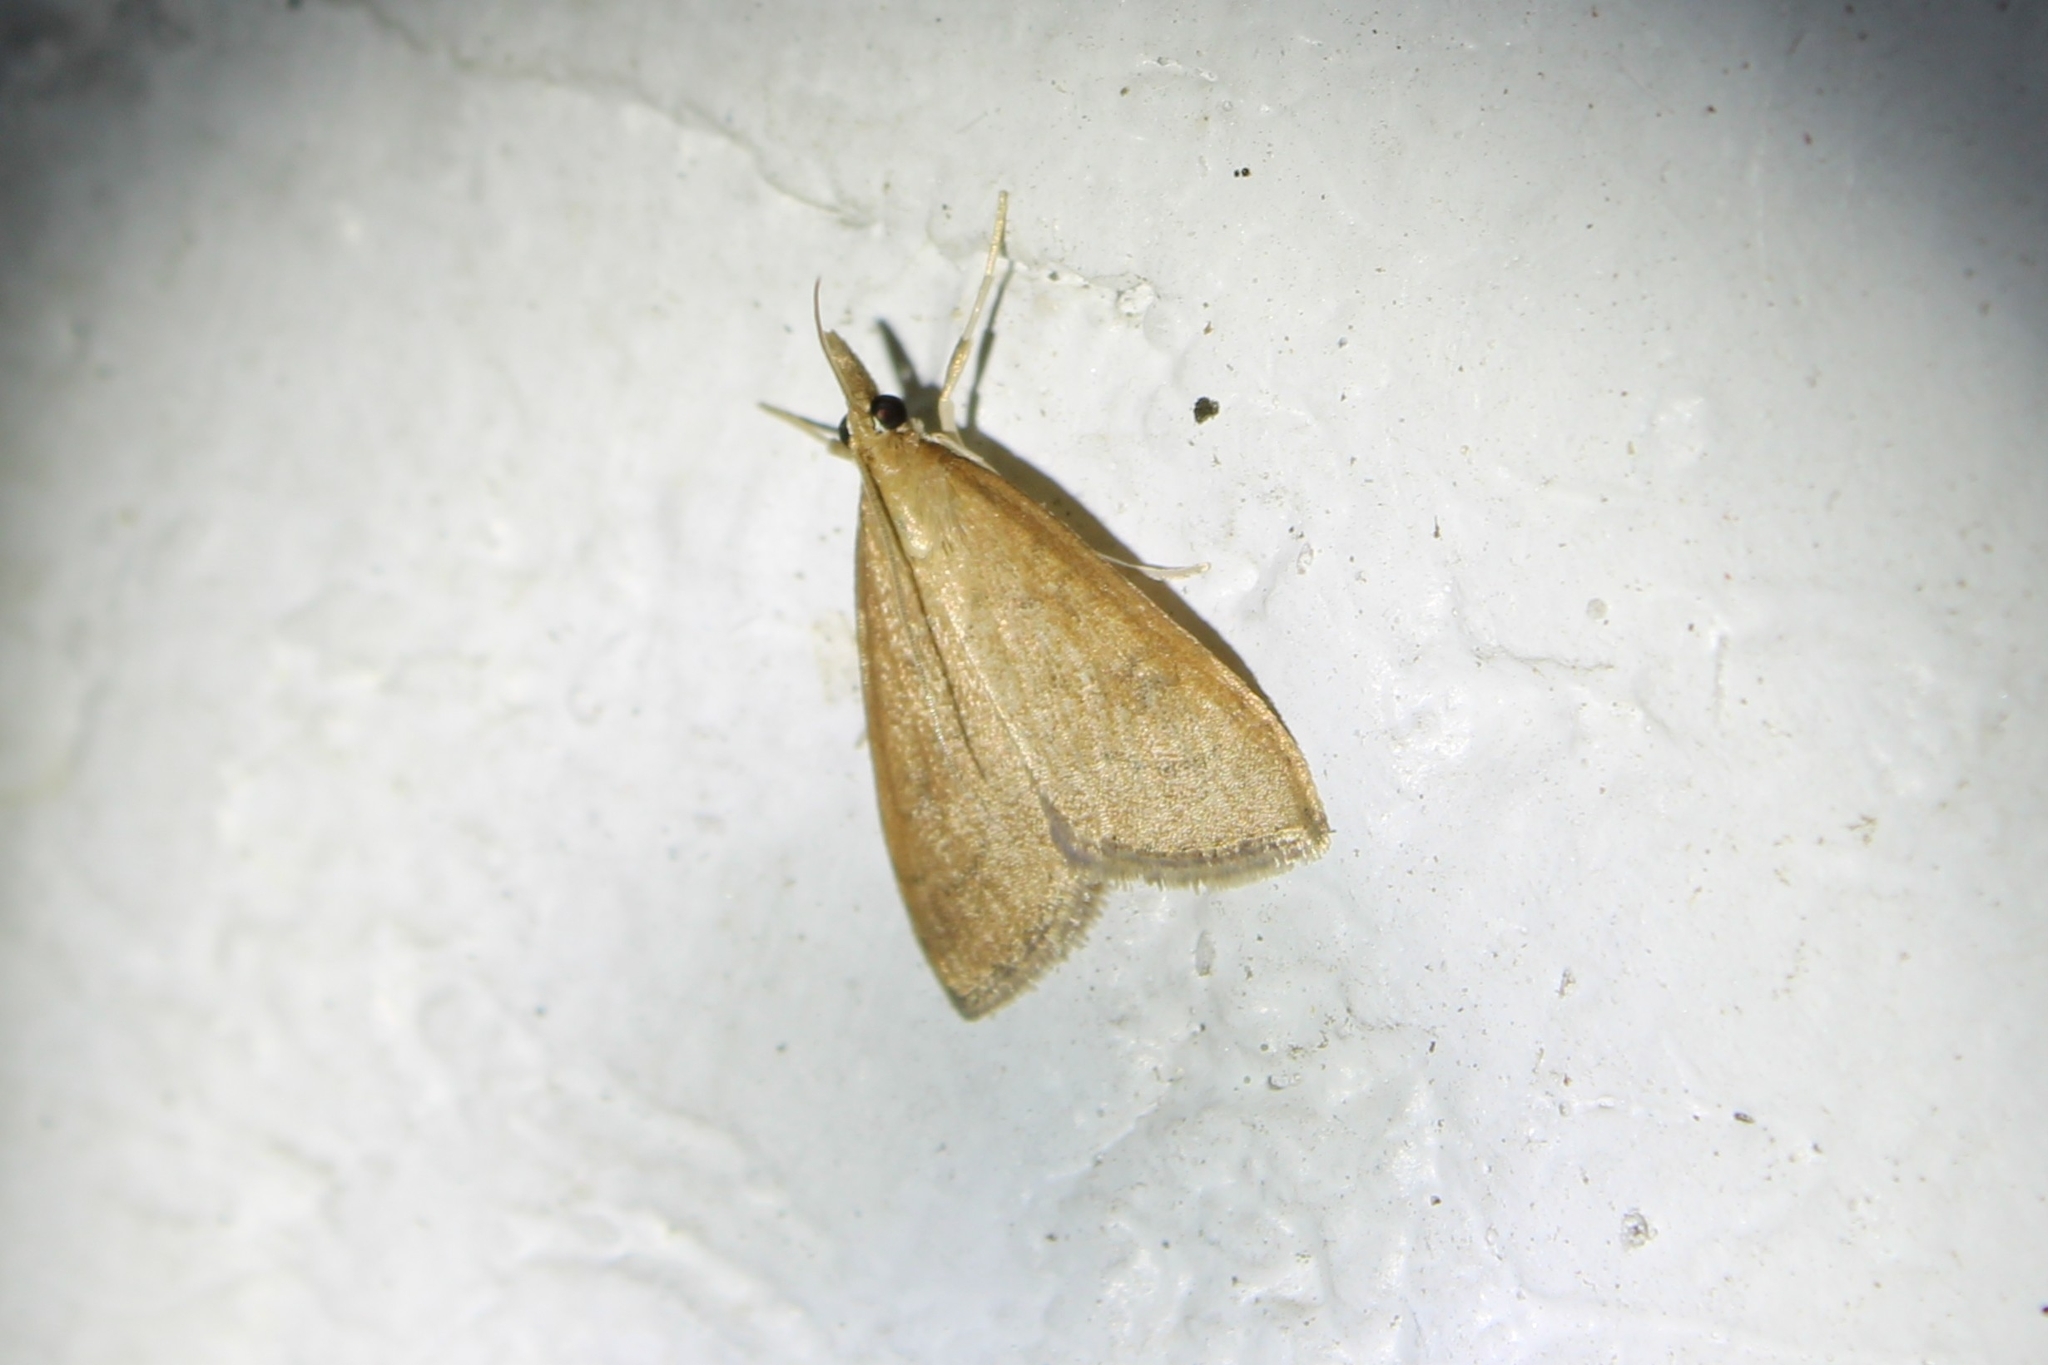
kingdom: Animalia
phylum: Arthropoda
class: Insecta
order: Lepidoptera
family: Crambidae
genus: Udea
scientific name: Udea rubigalis
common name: Celery leaftier moth
